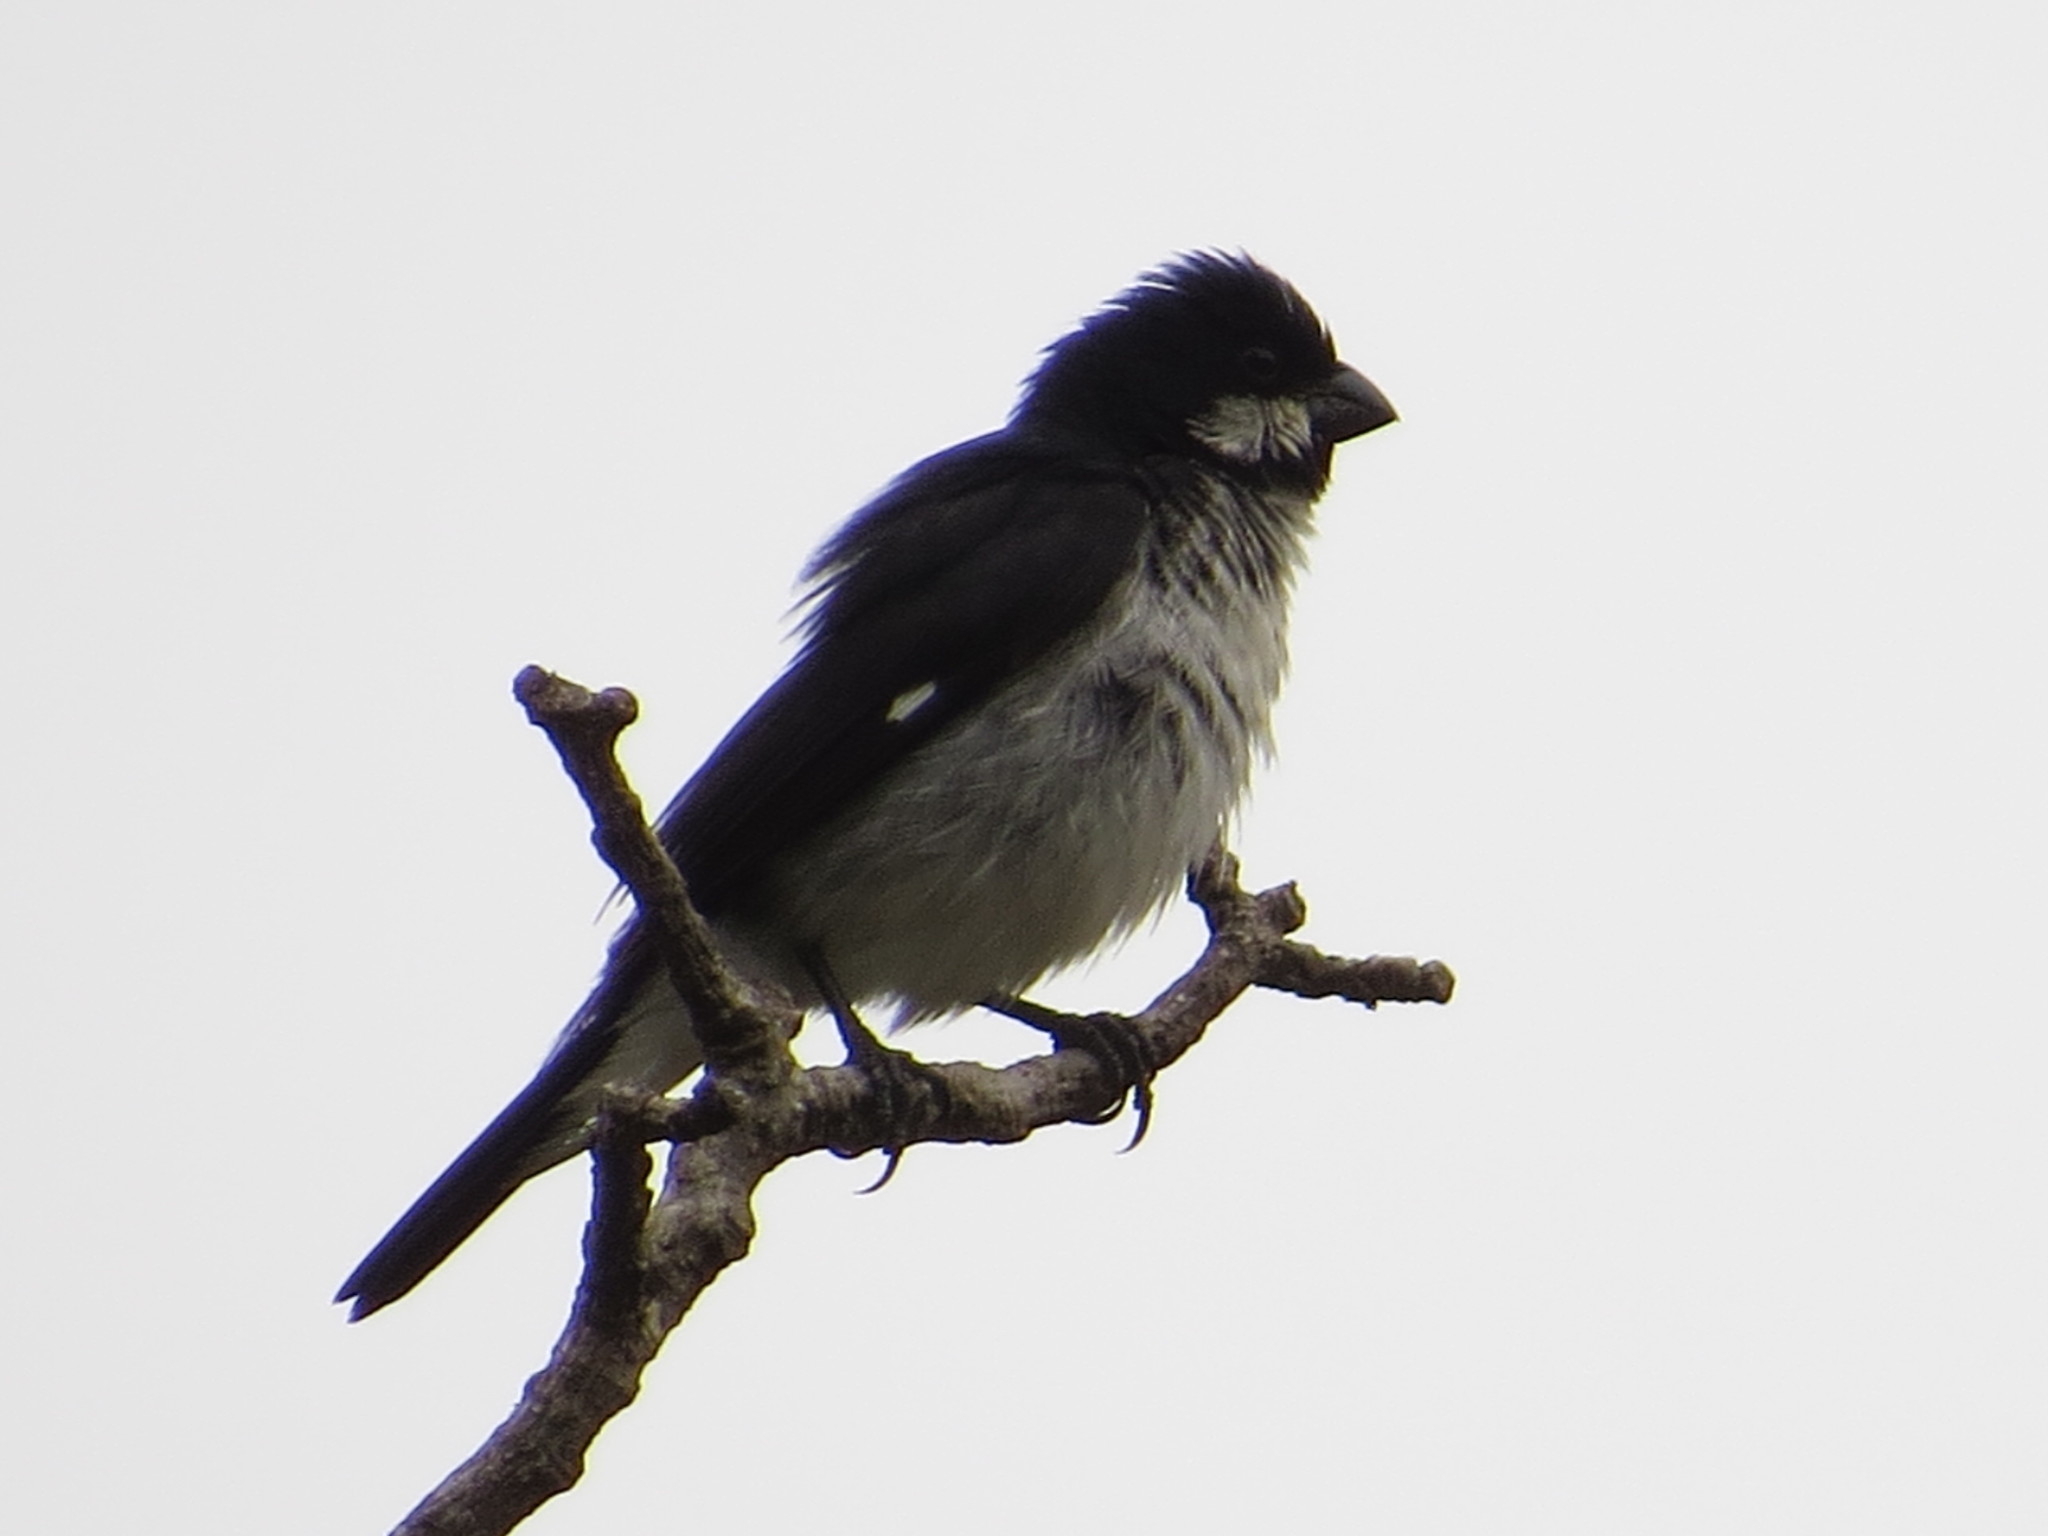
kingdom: Animalia
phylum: Chordata
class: Aves
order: Passeriformes
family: Thraupidae
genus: Sporophila
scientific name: Sporophila lineola
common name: Lined seedeater
